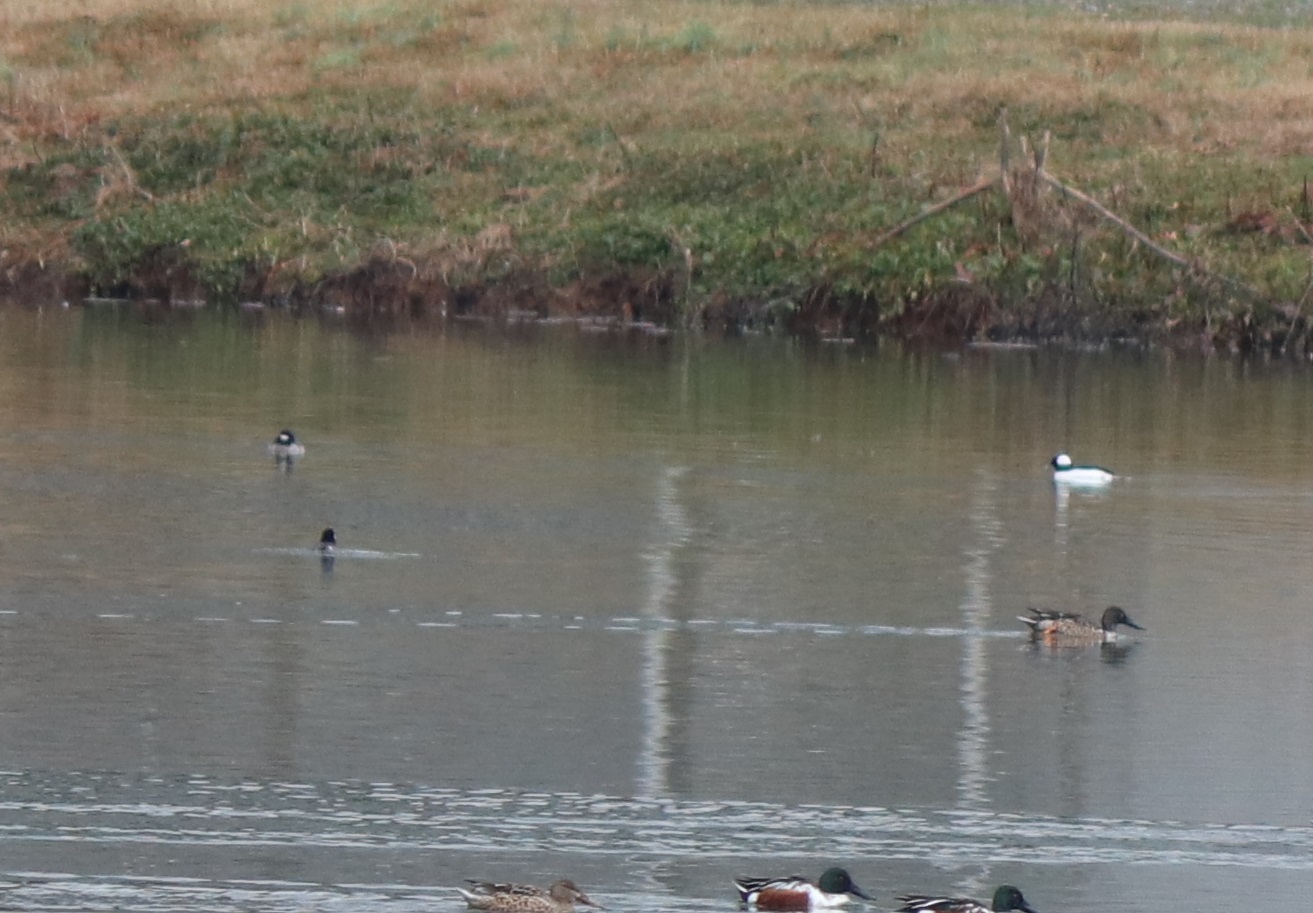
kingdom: Animalia
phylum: Chordata
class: Aves
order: Anseriformes
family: Anatidae
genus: Bucephala
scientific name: Bucephala albeola
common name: Bufflehead
